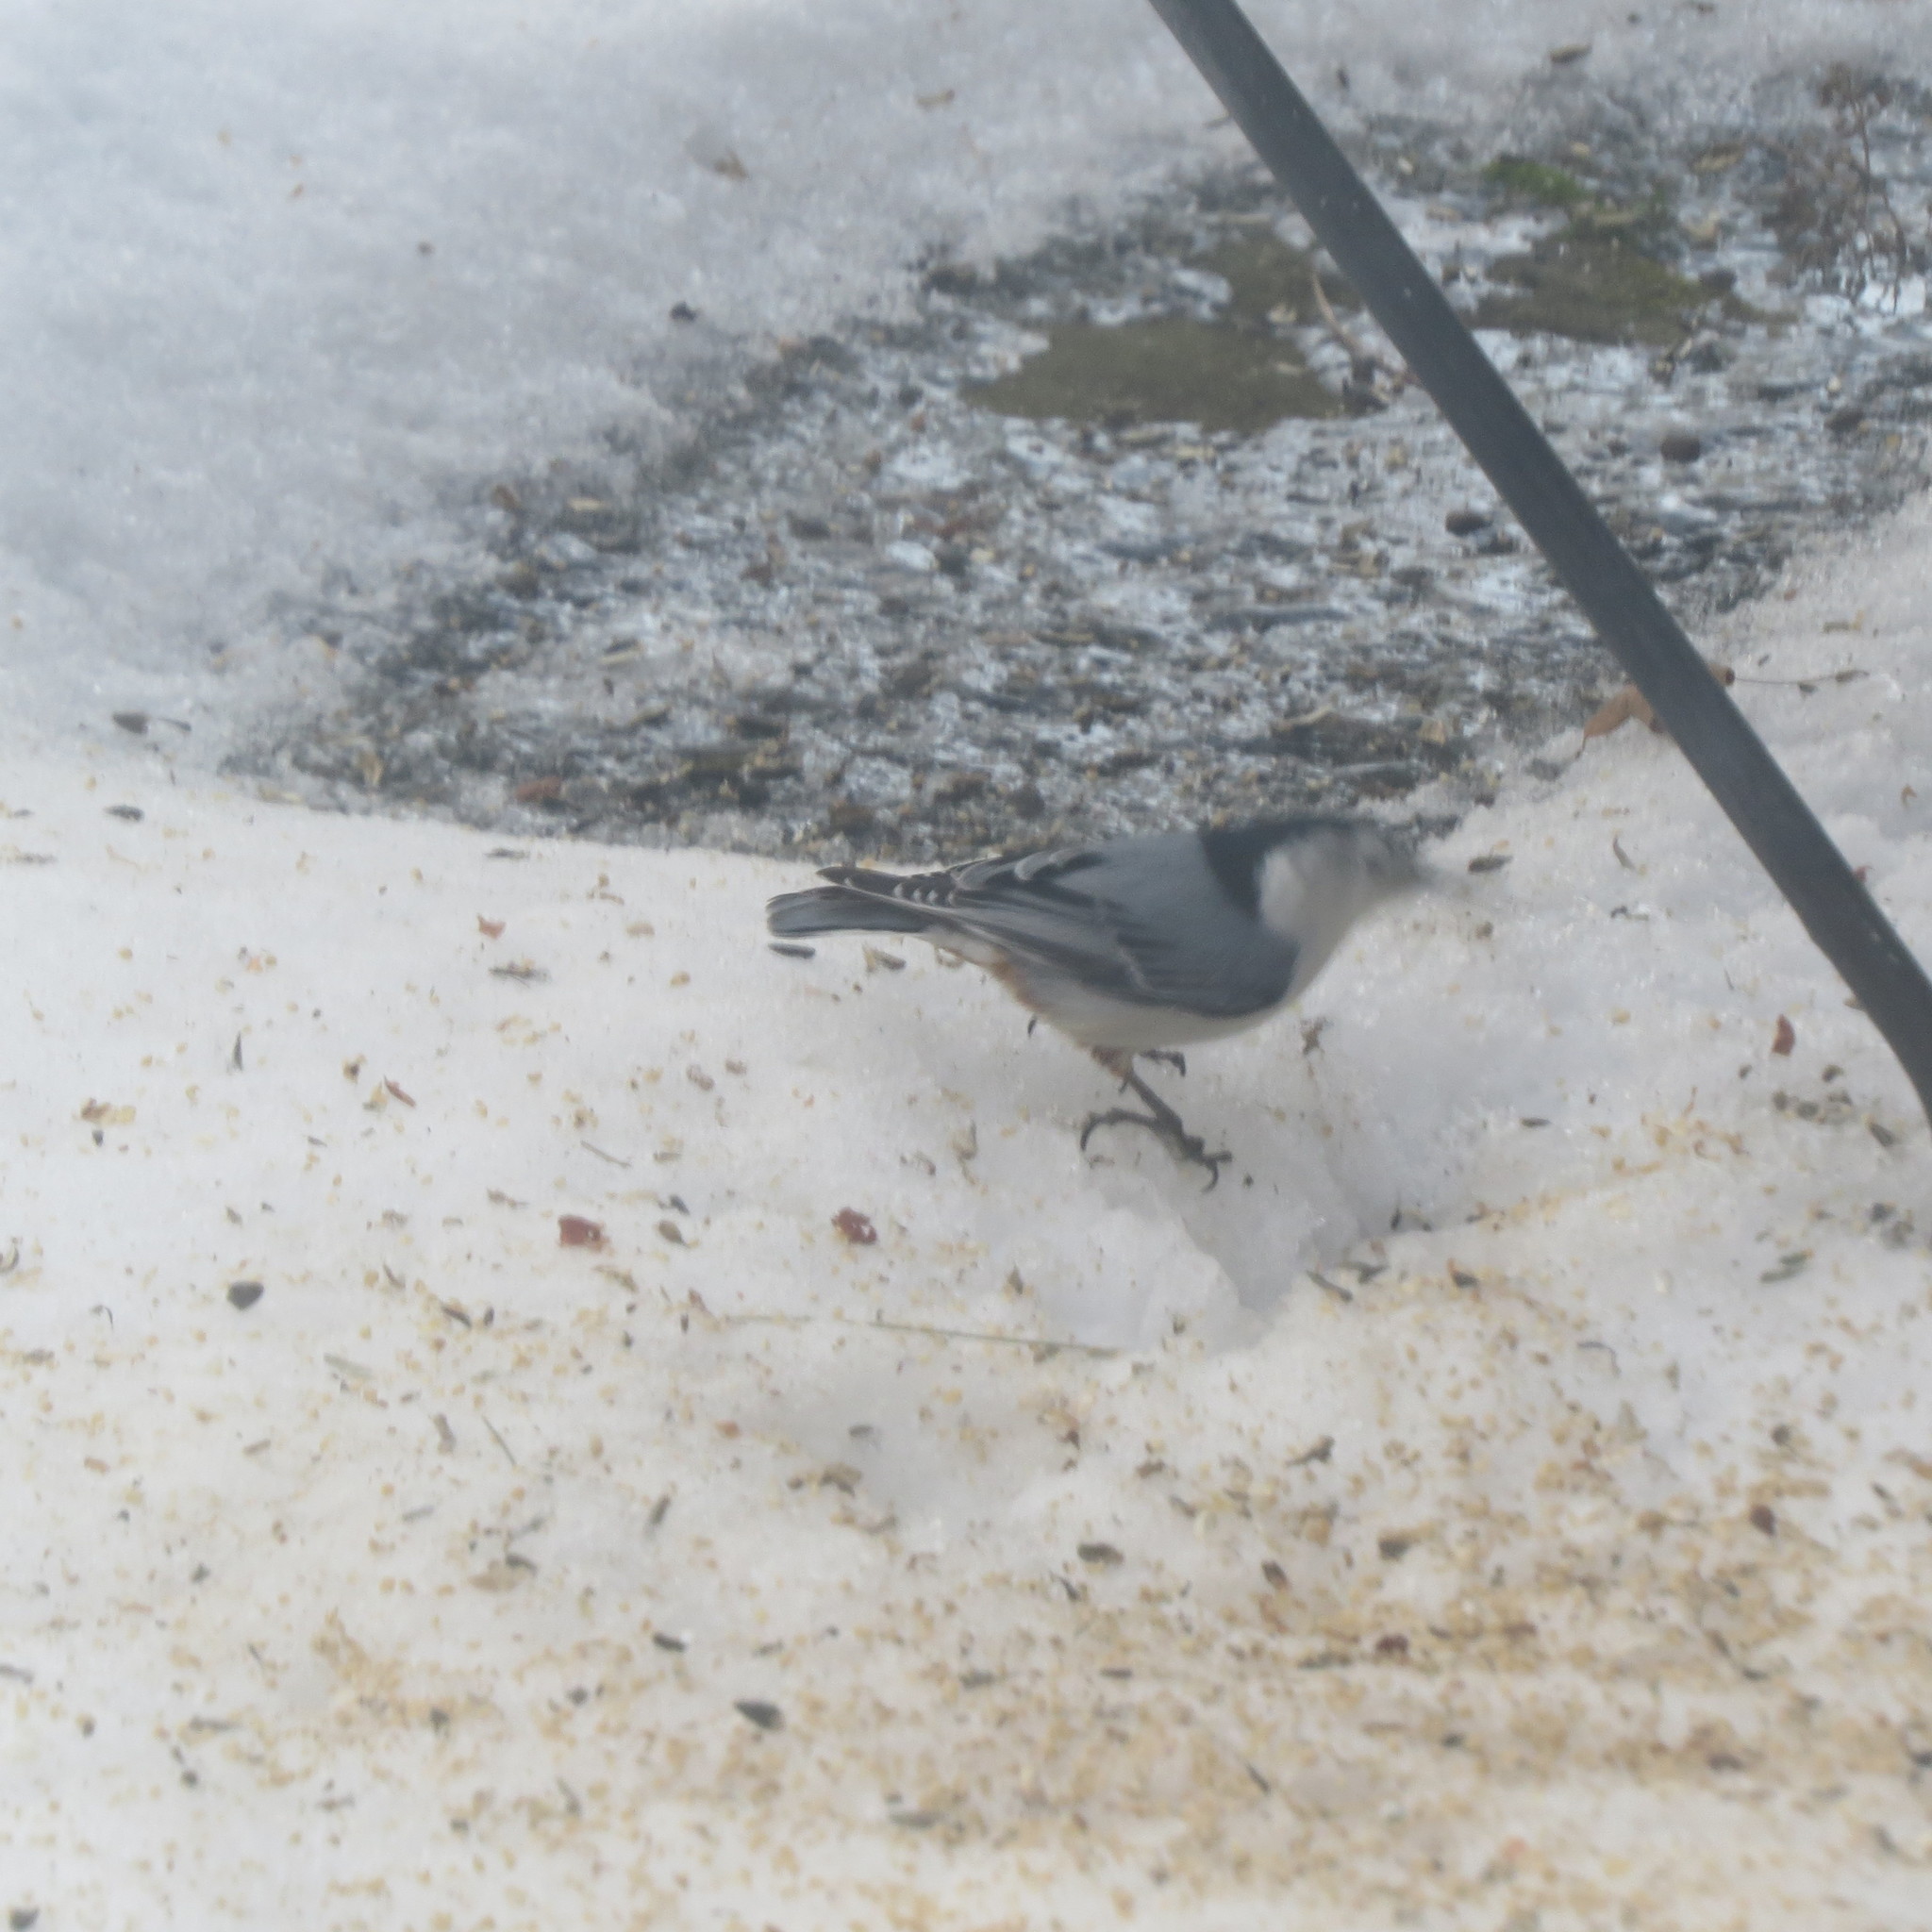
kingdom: Animalia
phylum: Chordata
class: Aves
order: Passeriformes
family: Sittidae
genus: Sitta
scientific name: Sitta carolinensis
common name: White-breasted nuthatch
